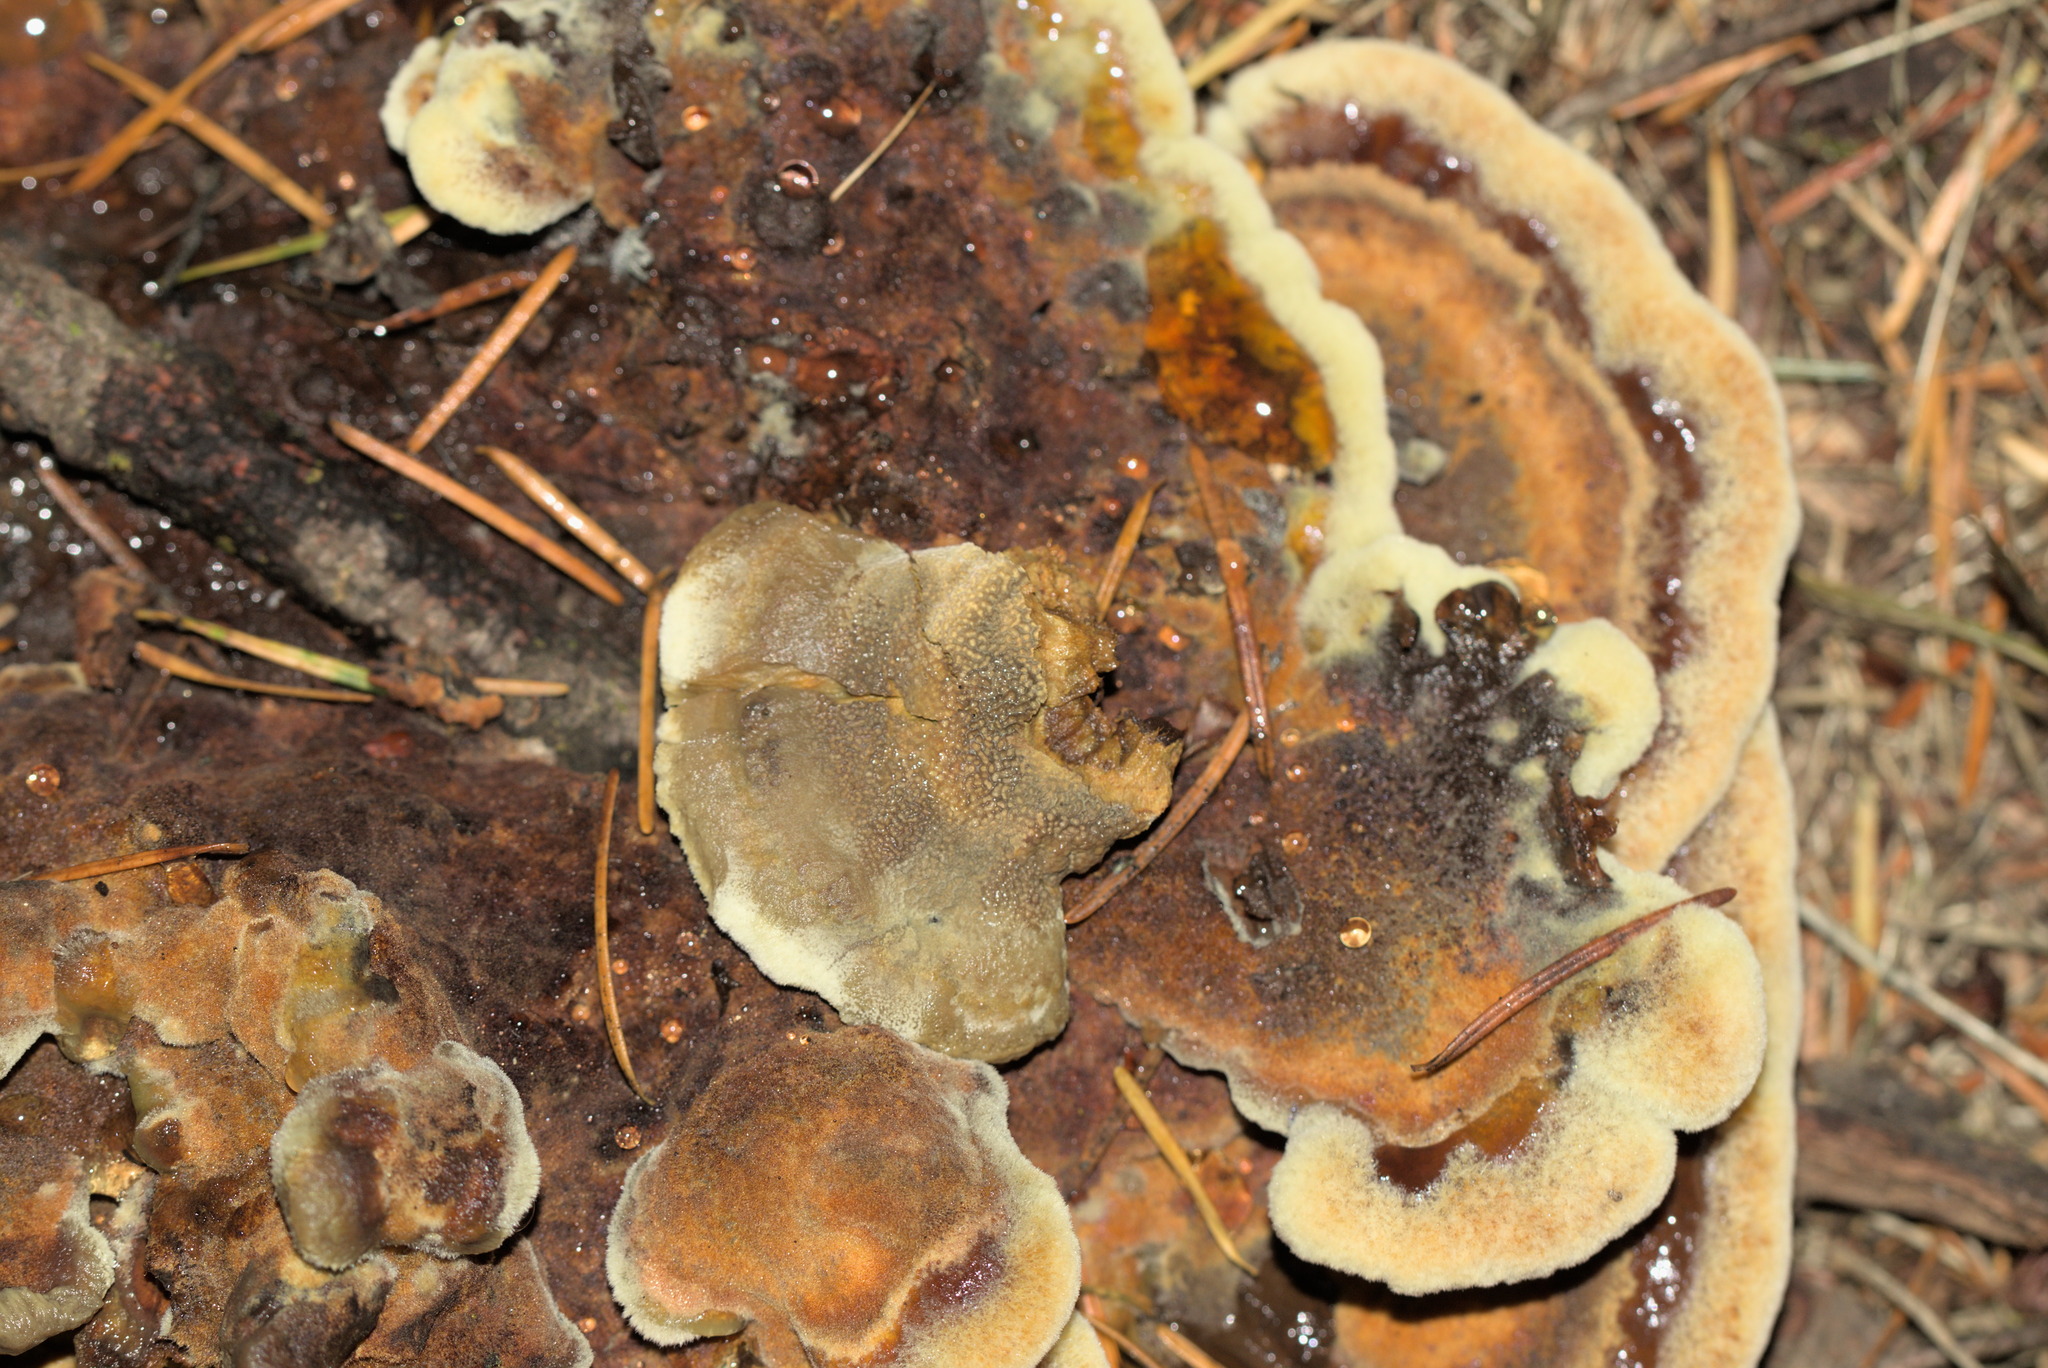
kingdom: Fungi
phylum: Basidiomycota
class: Agaricomycetes
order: Polyporales
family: Laetiporaceae
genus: Phaeolus
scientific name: Phaeolus schweinitzii
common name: Dyer's mazegill
